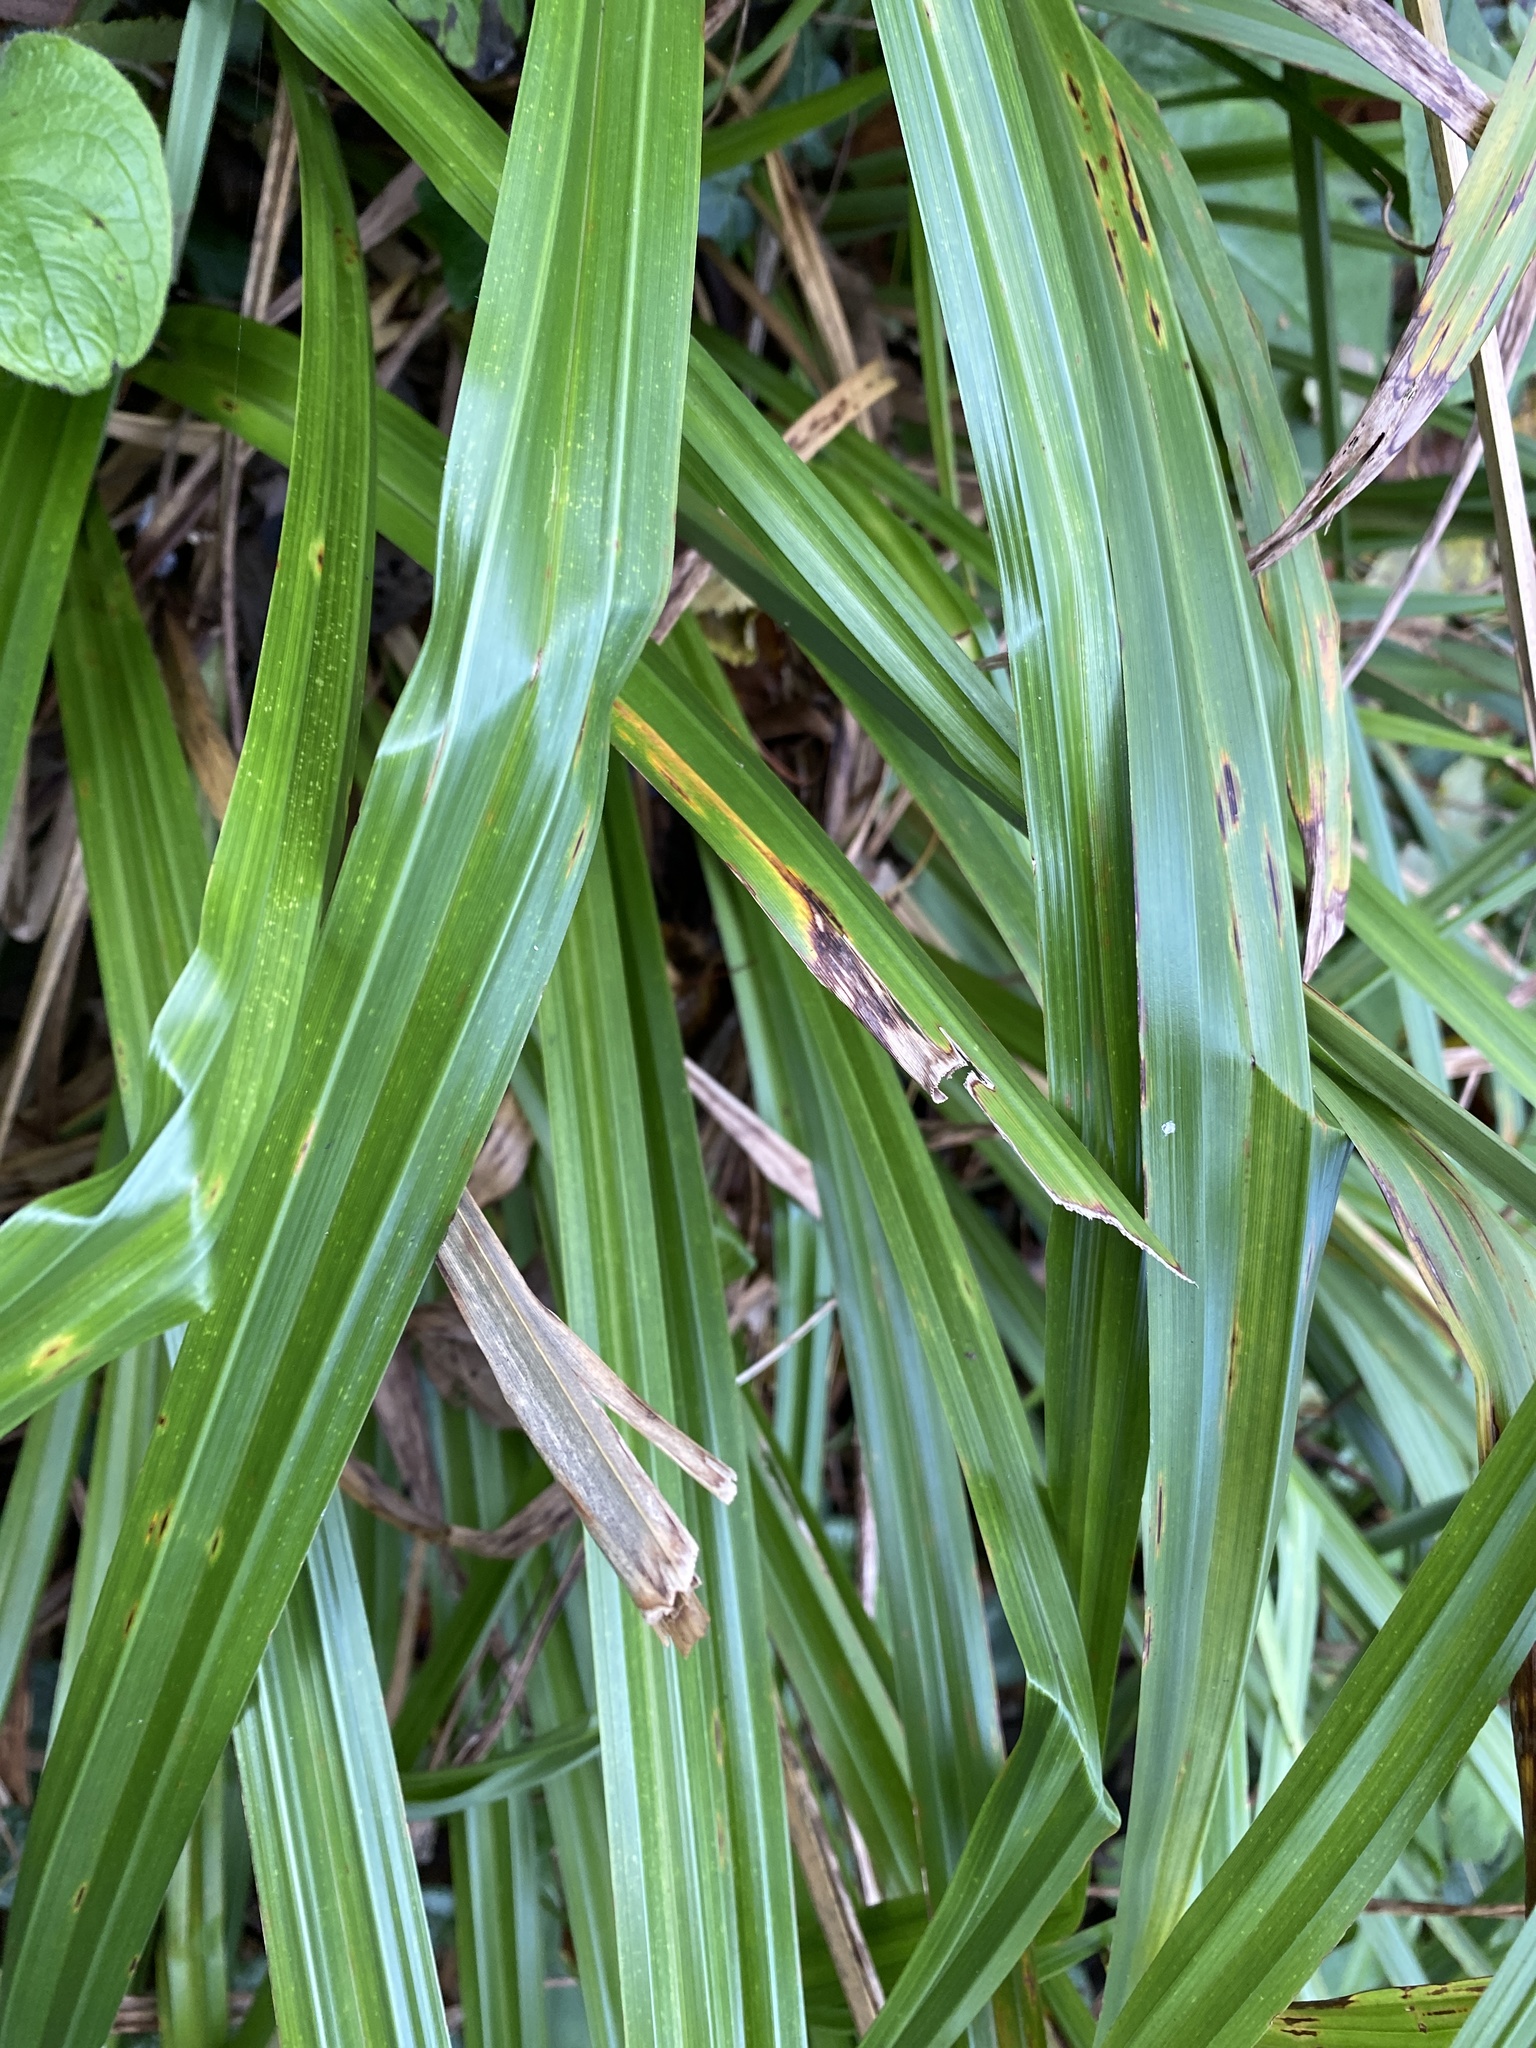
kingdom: Plantae
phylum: Tracheophyta
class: Liliopsida
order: Poales
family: Cyperaceae
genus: Carex
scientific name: Carex pendula
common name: Pendulous sedge
